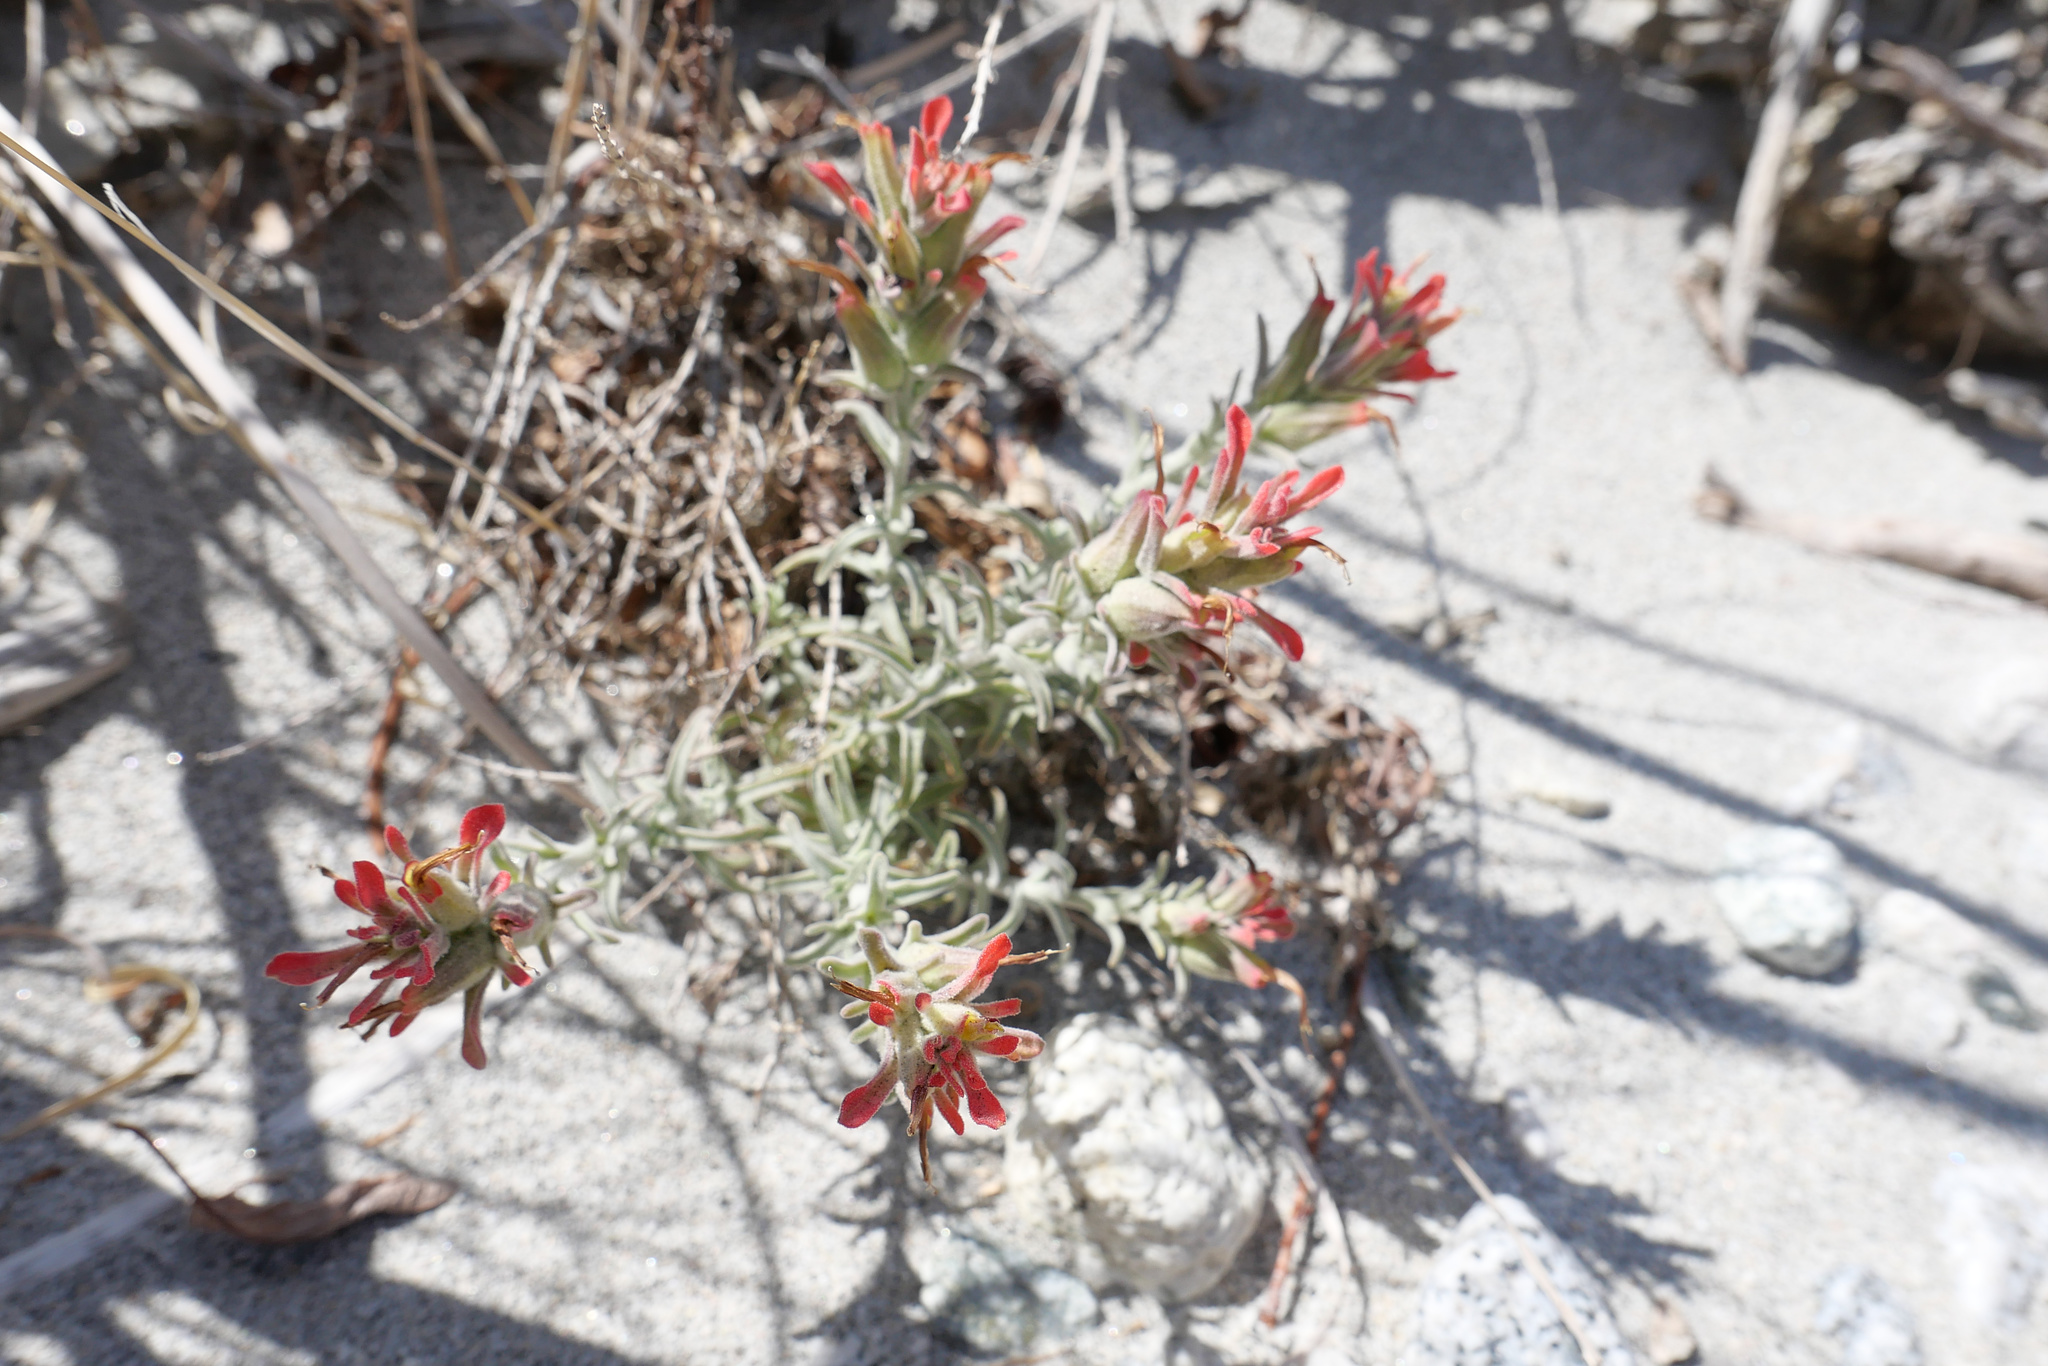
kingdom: Plantae
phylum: Tracheophyta
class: Magnoliopsida
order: Lamiales
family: Orobanchaceae
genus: Castilleja
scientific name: Castilleja foliolosa
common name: Woolly indian paintbrush
